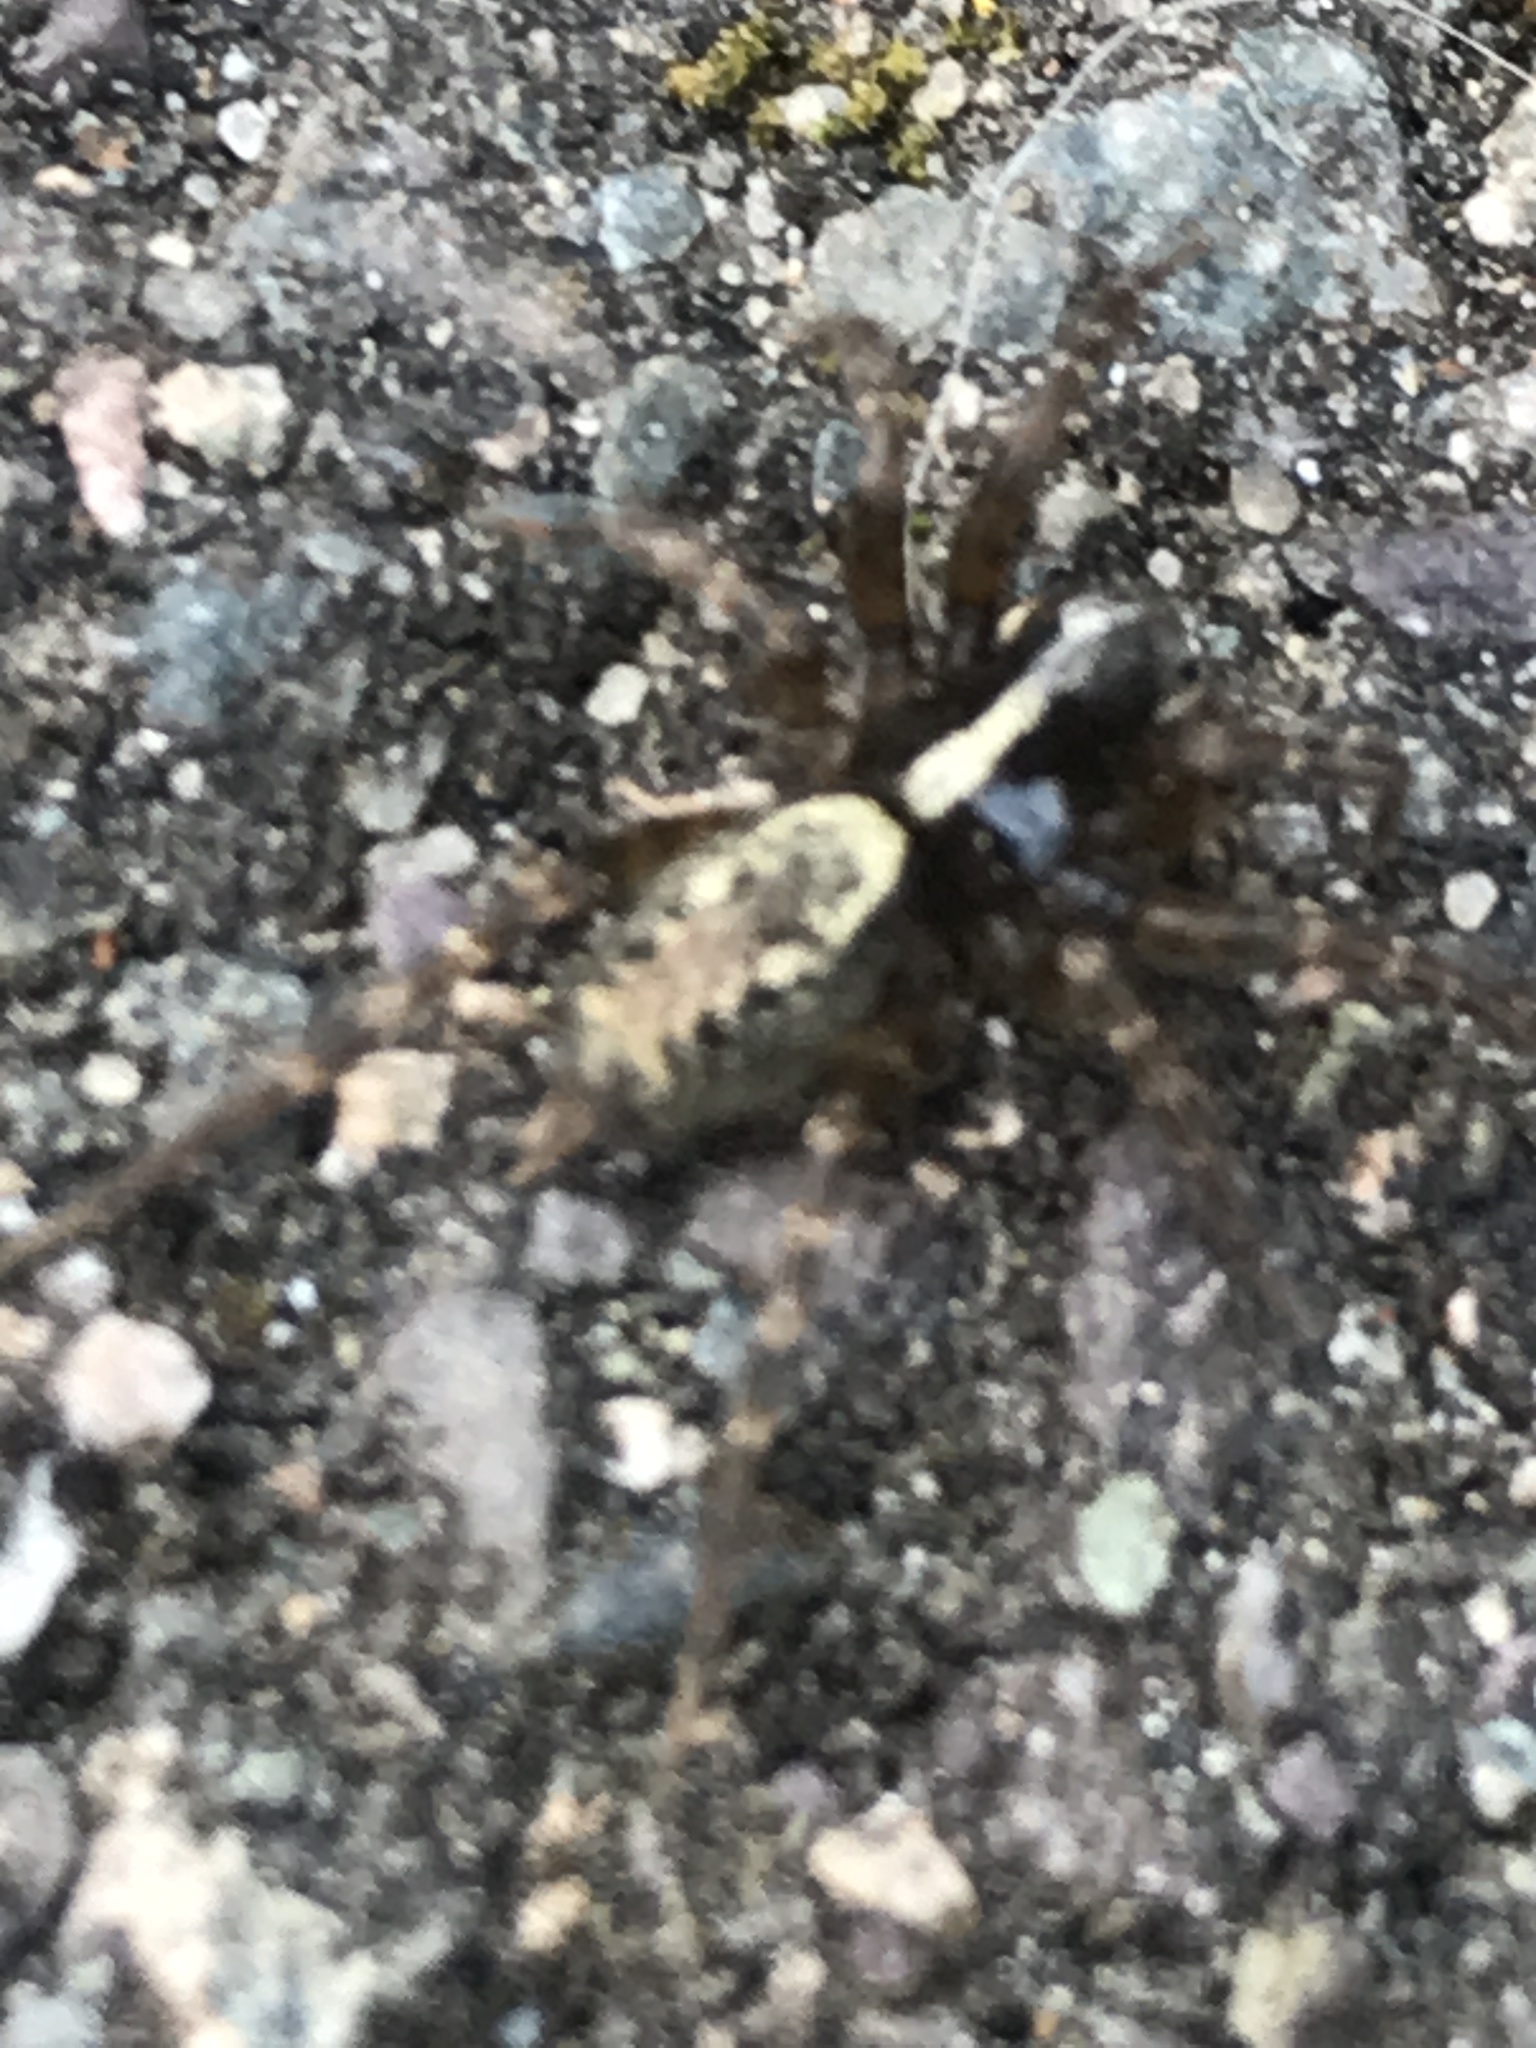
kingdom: Animalia
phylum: Arthropoda
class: Arachnida
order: Araneae
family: Agelenidae
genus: Textrix
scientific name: Textrix denticulata
